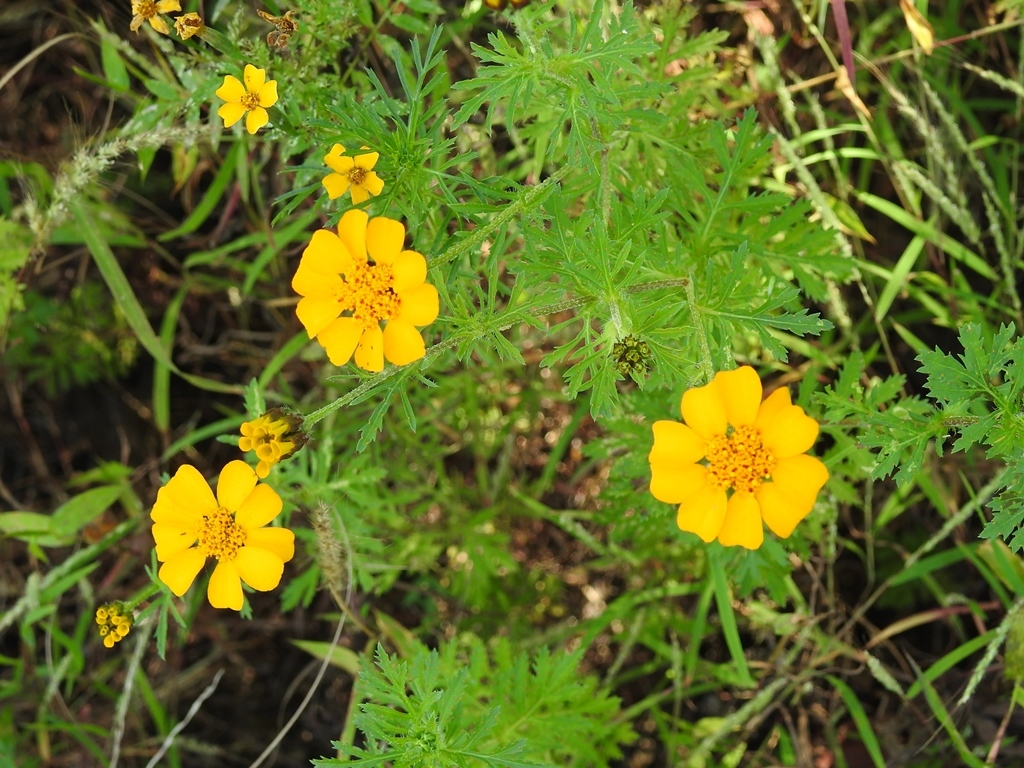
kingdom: Plantae
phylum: Tracheophyta
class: Magnoliopsida
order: Asterales
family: Asteraceae
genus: Dyssodia
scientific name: Dyssodia decipiens
